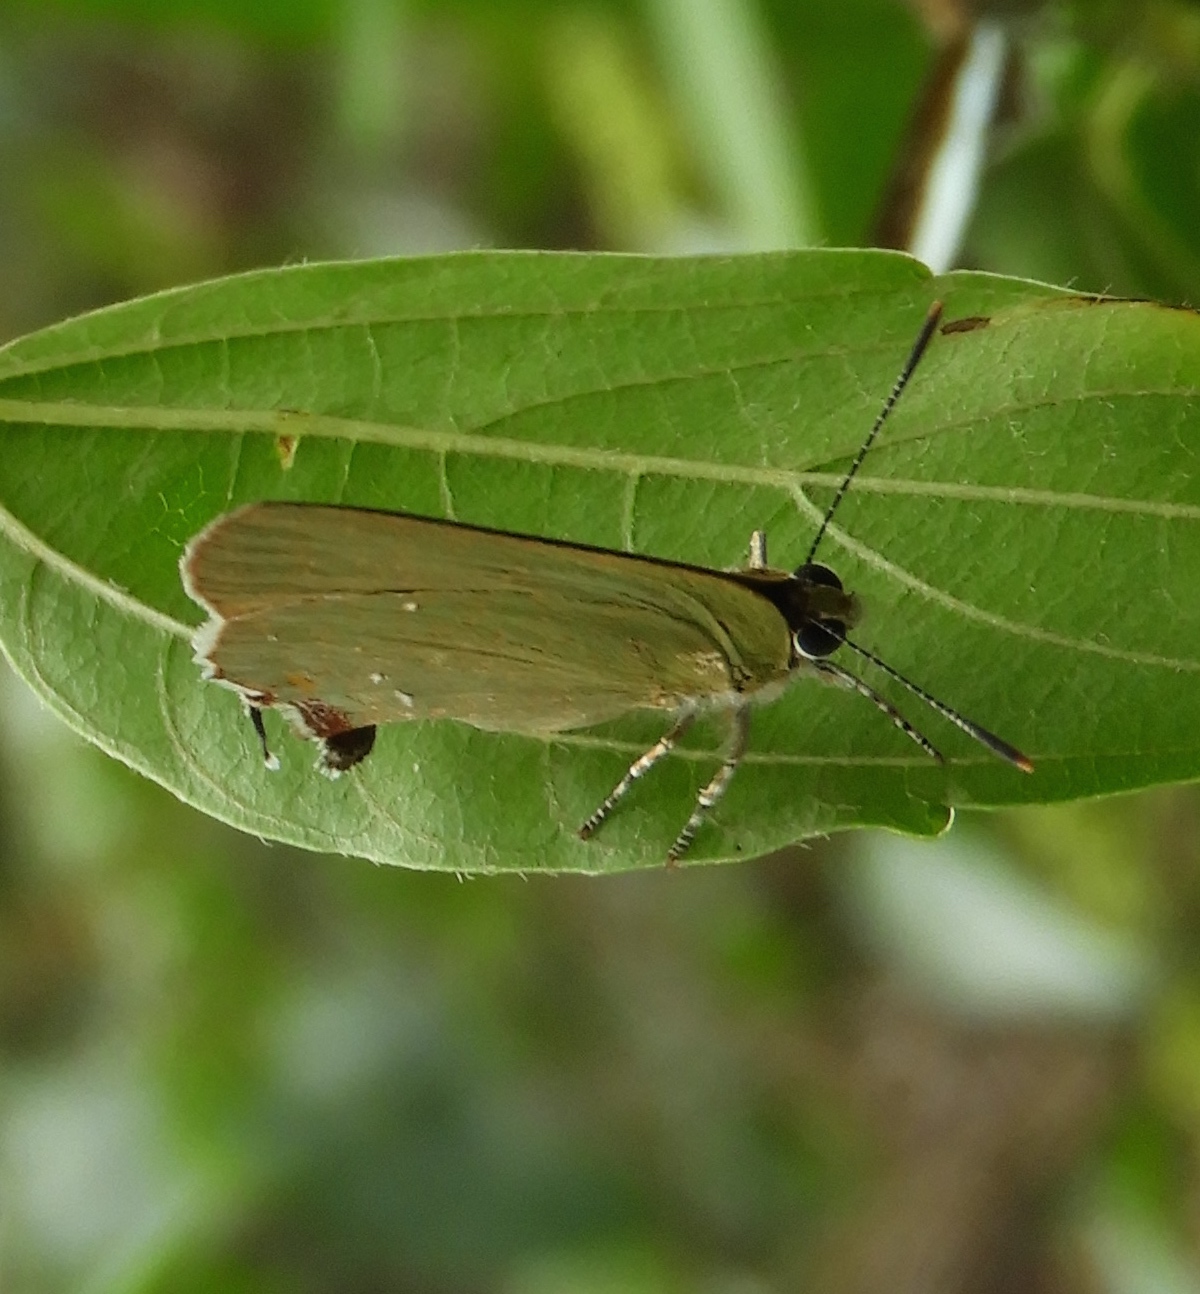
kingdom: Animalia
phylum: Arthropoda
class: Insecta
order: Lepidoptera
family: Lycaenidae
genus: Thecla
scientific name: Thecla herodotus
